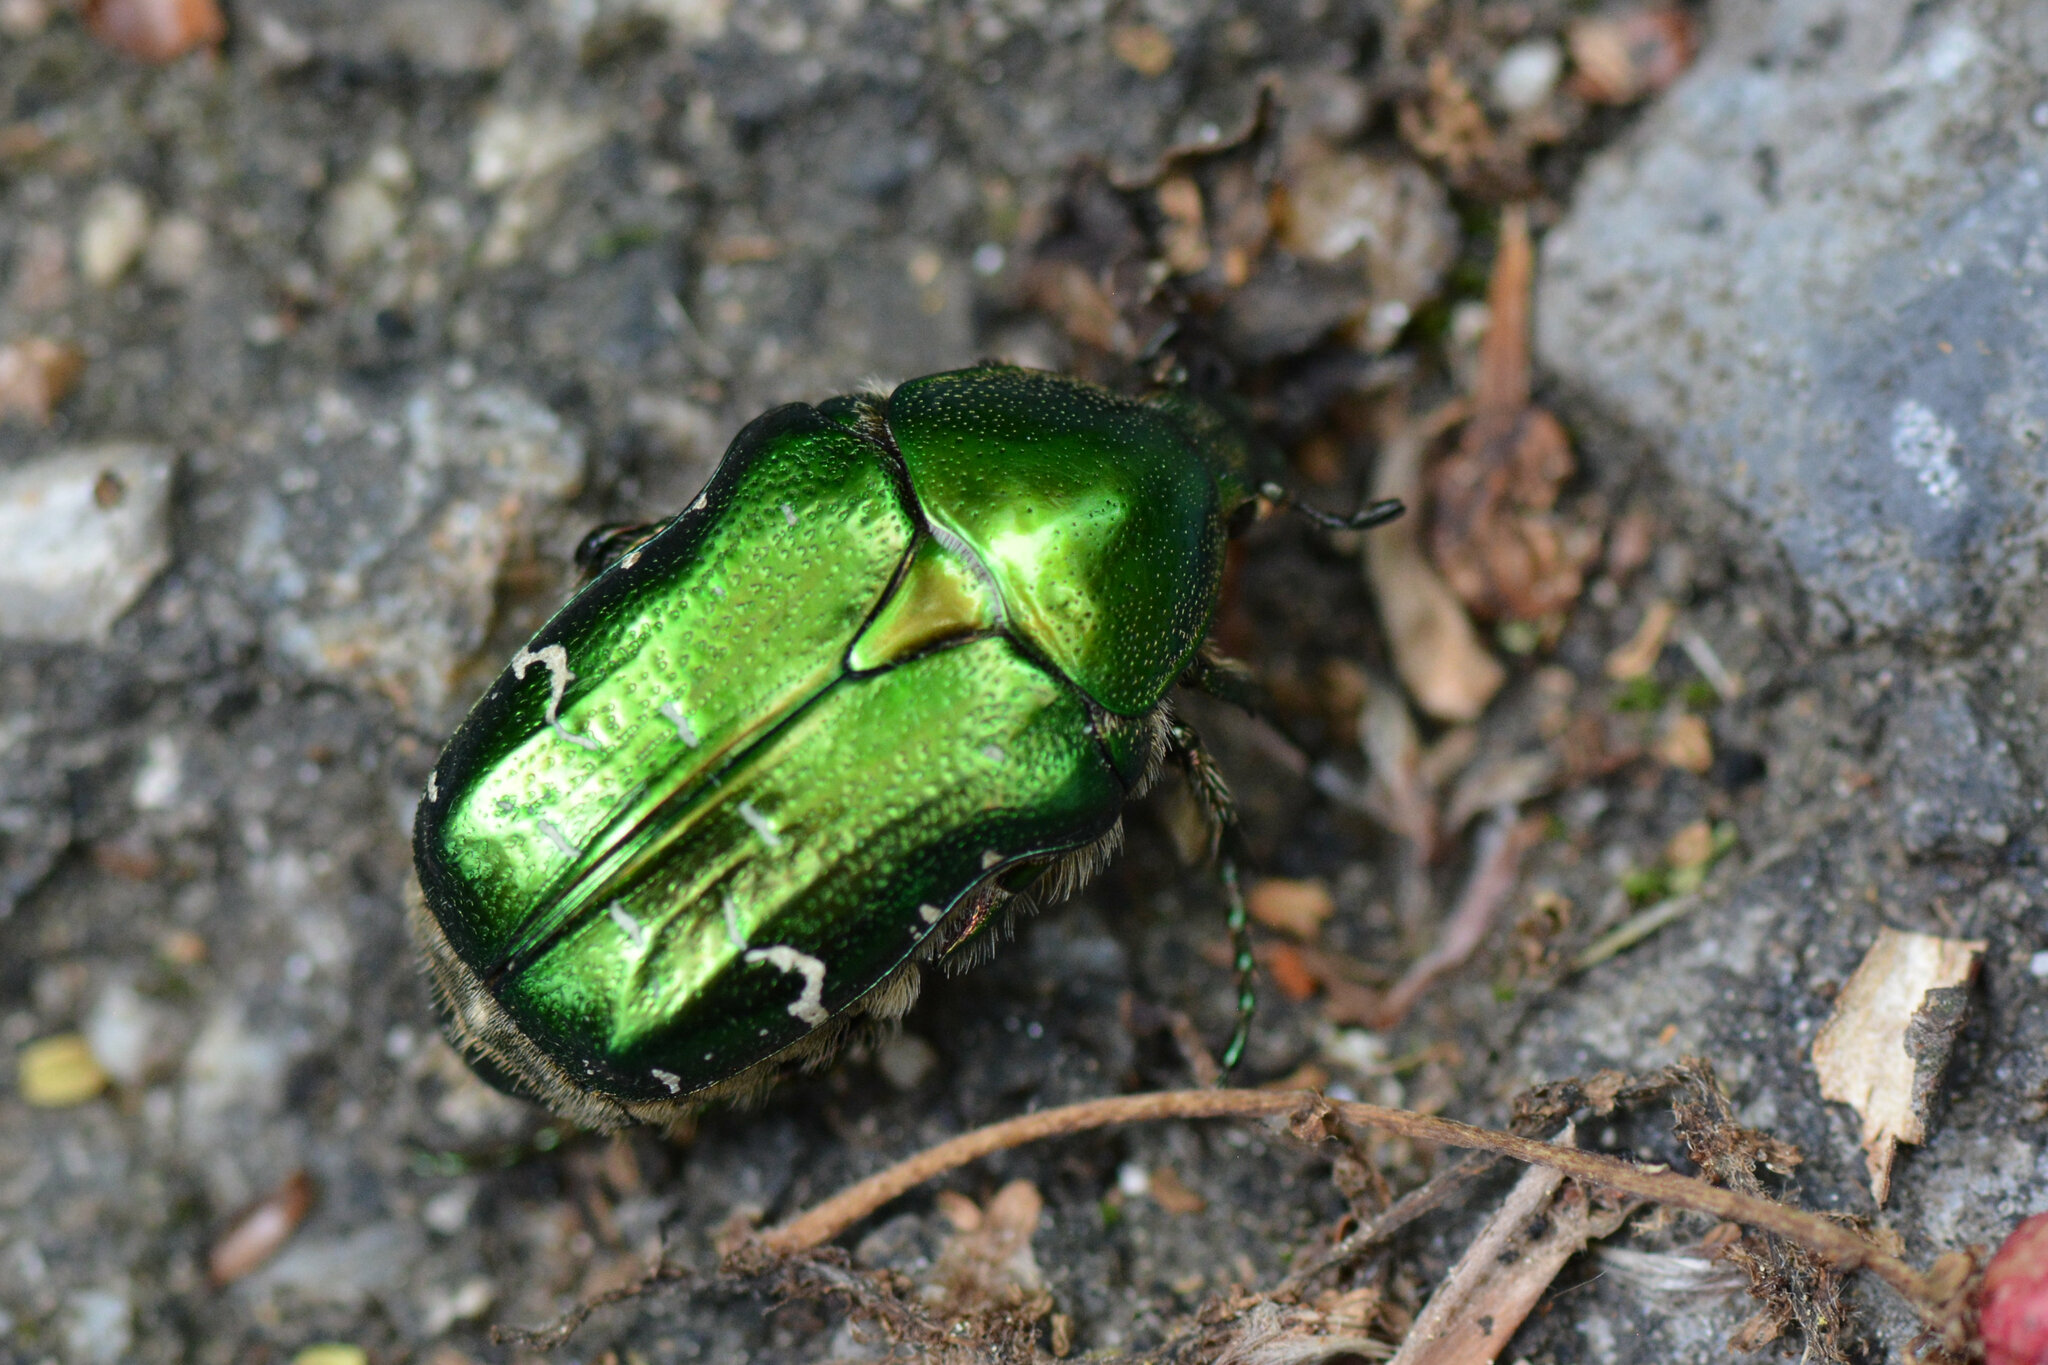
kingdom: Animalia
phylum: Arthropoda
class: Insecta
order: Coleoptera
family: Scarabaeidae
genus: Cetonia
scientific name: Cetonia aurata
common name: Rose chafer
